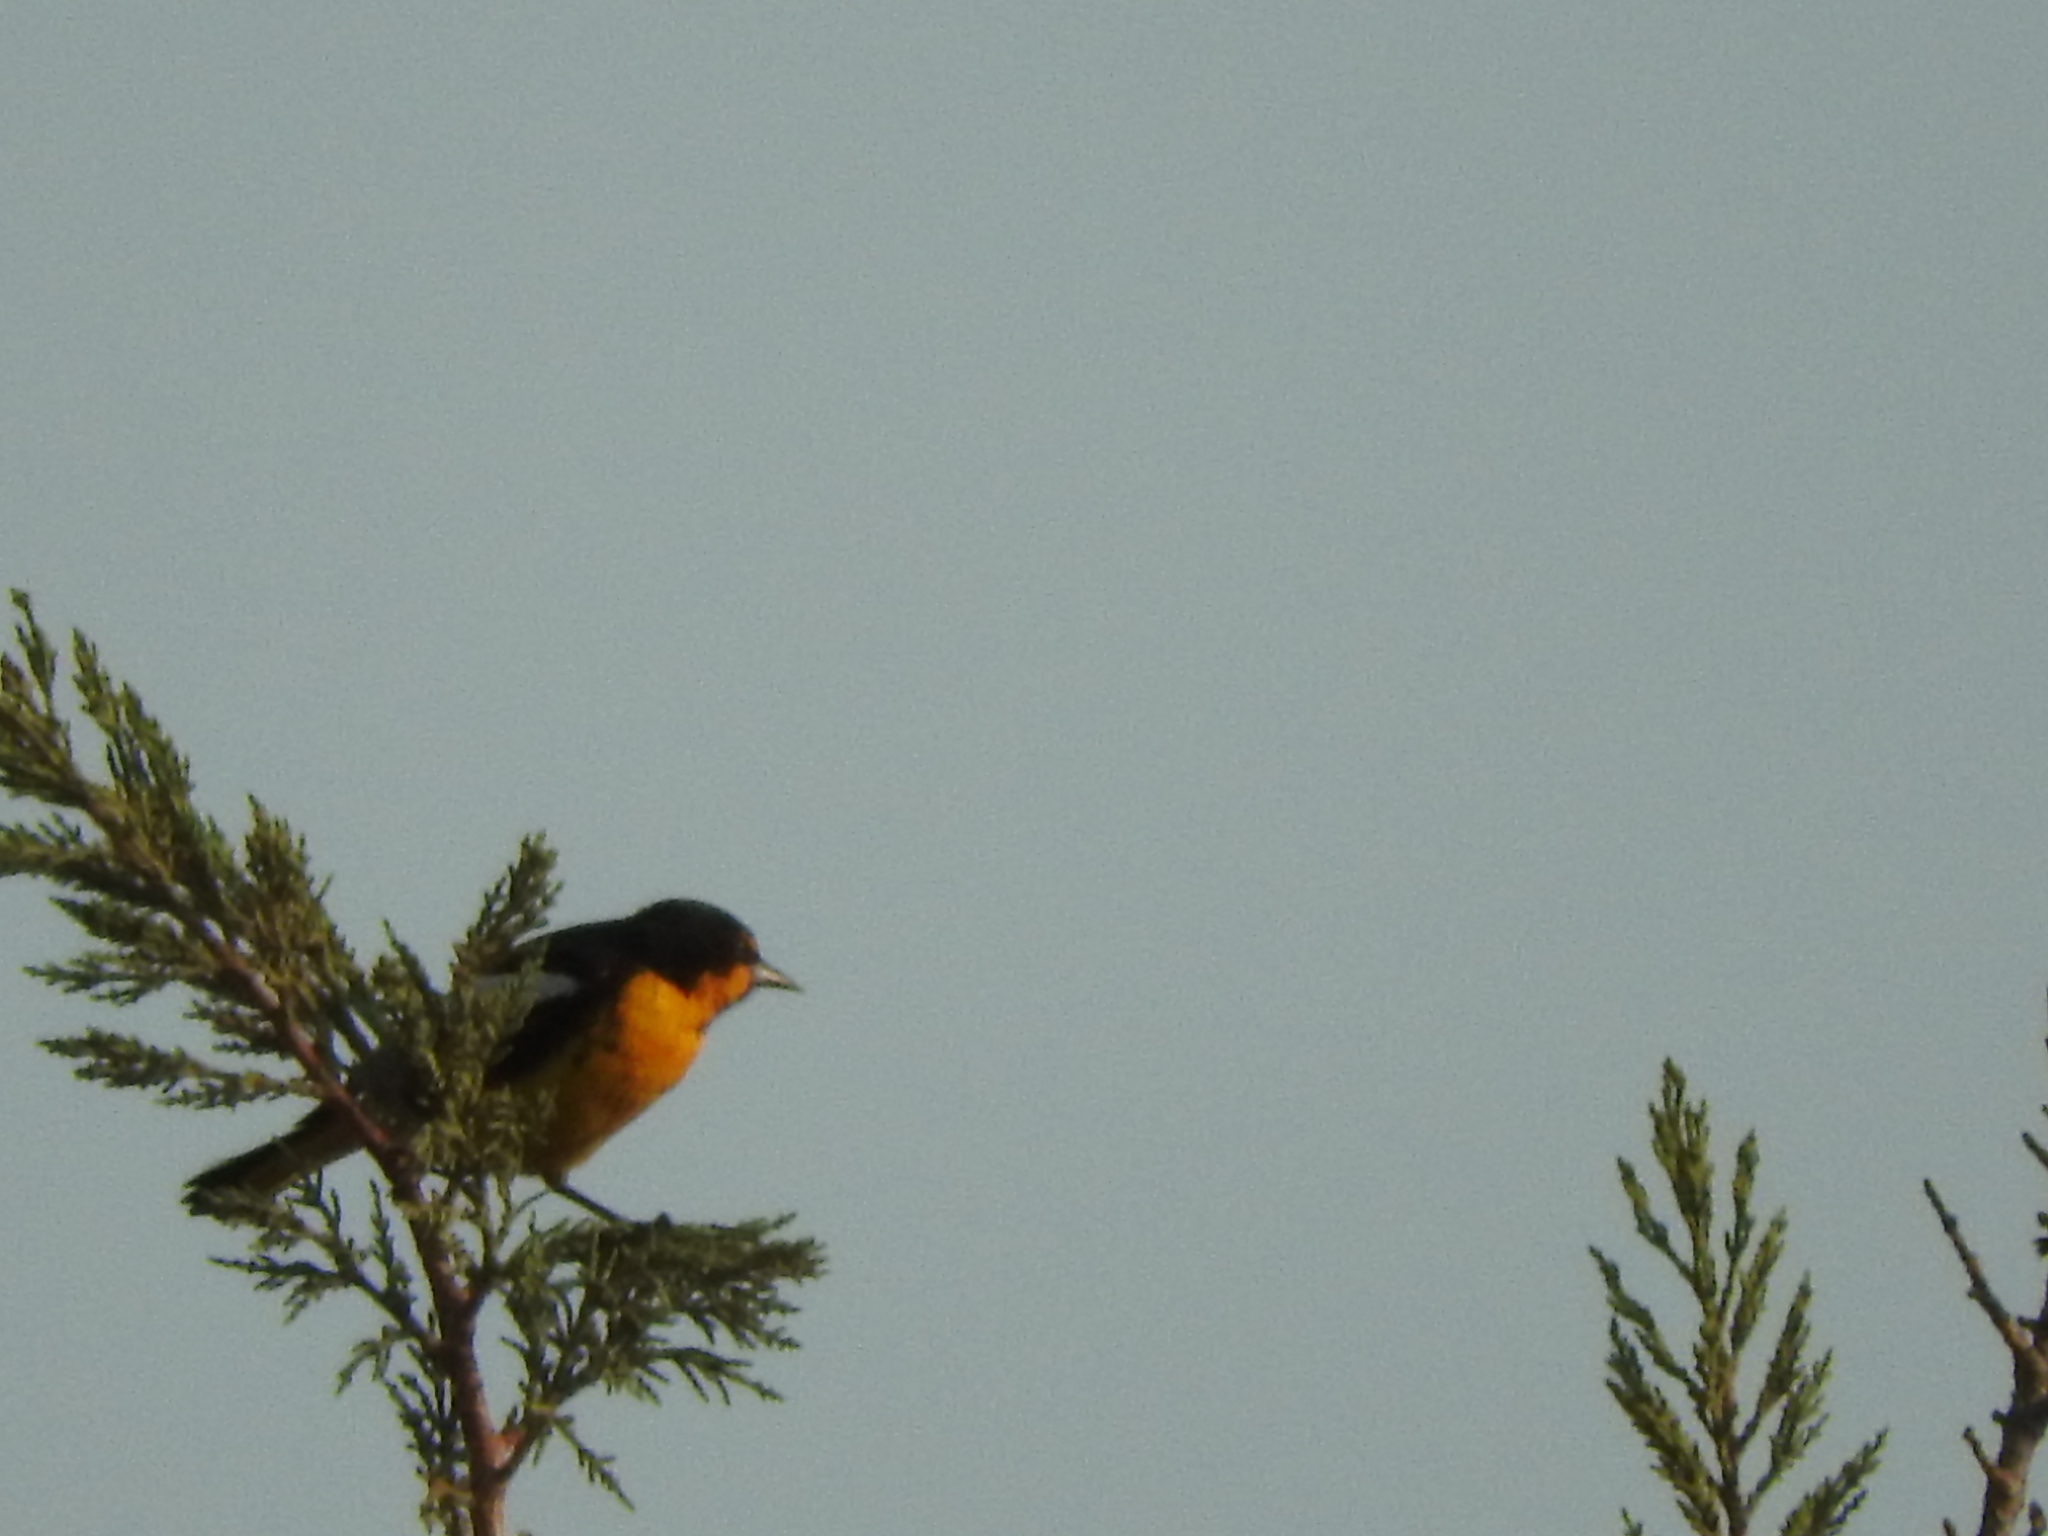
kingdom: Animalia
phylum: Chordata
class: Aves
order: Passeriformes
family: Icteridae
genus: Icterus
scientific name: Icterus abeillei
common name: Black-backed oriole
